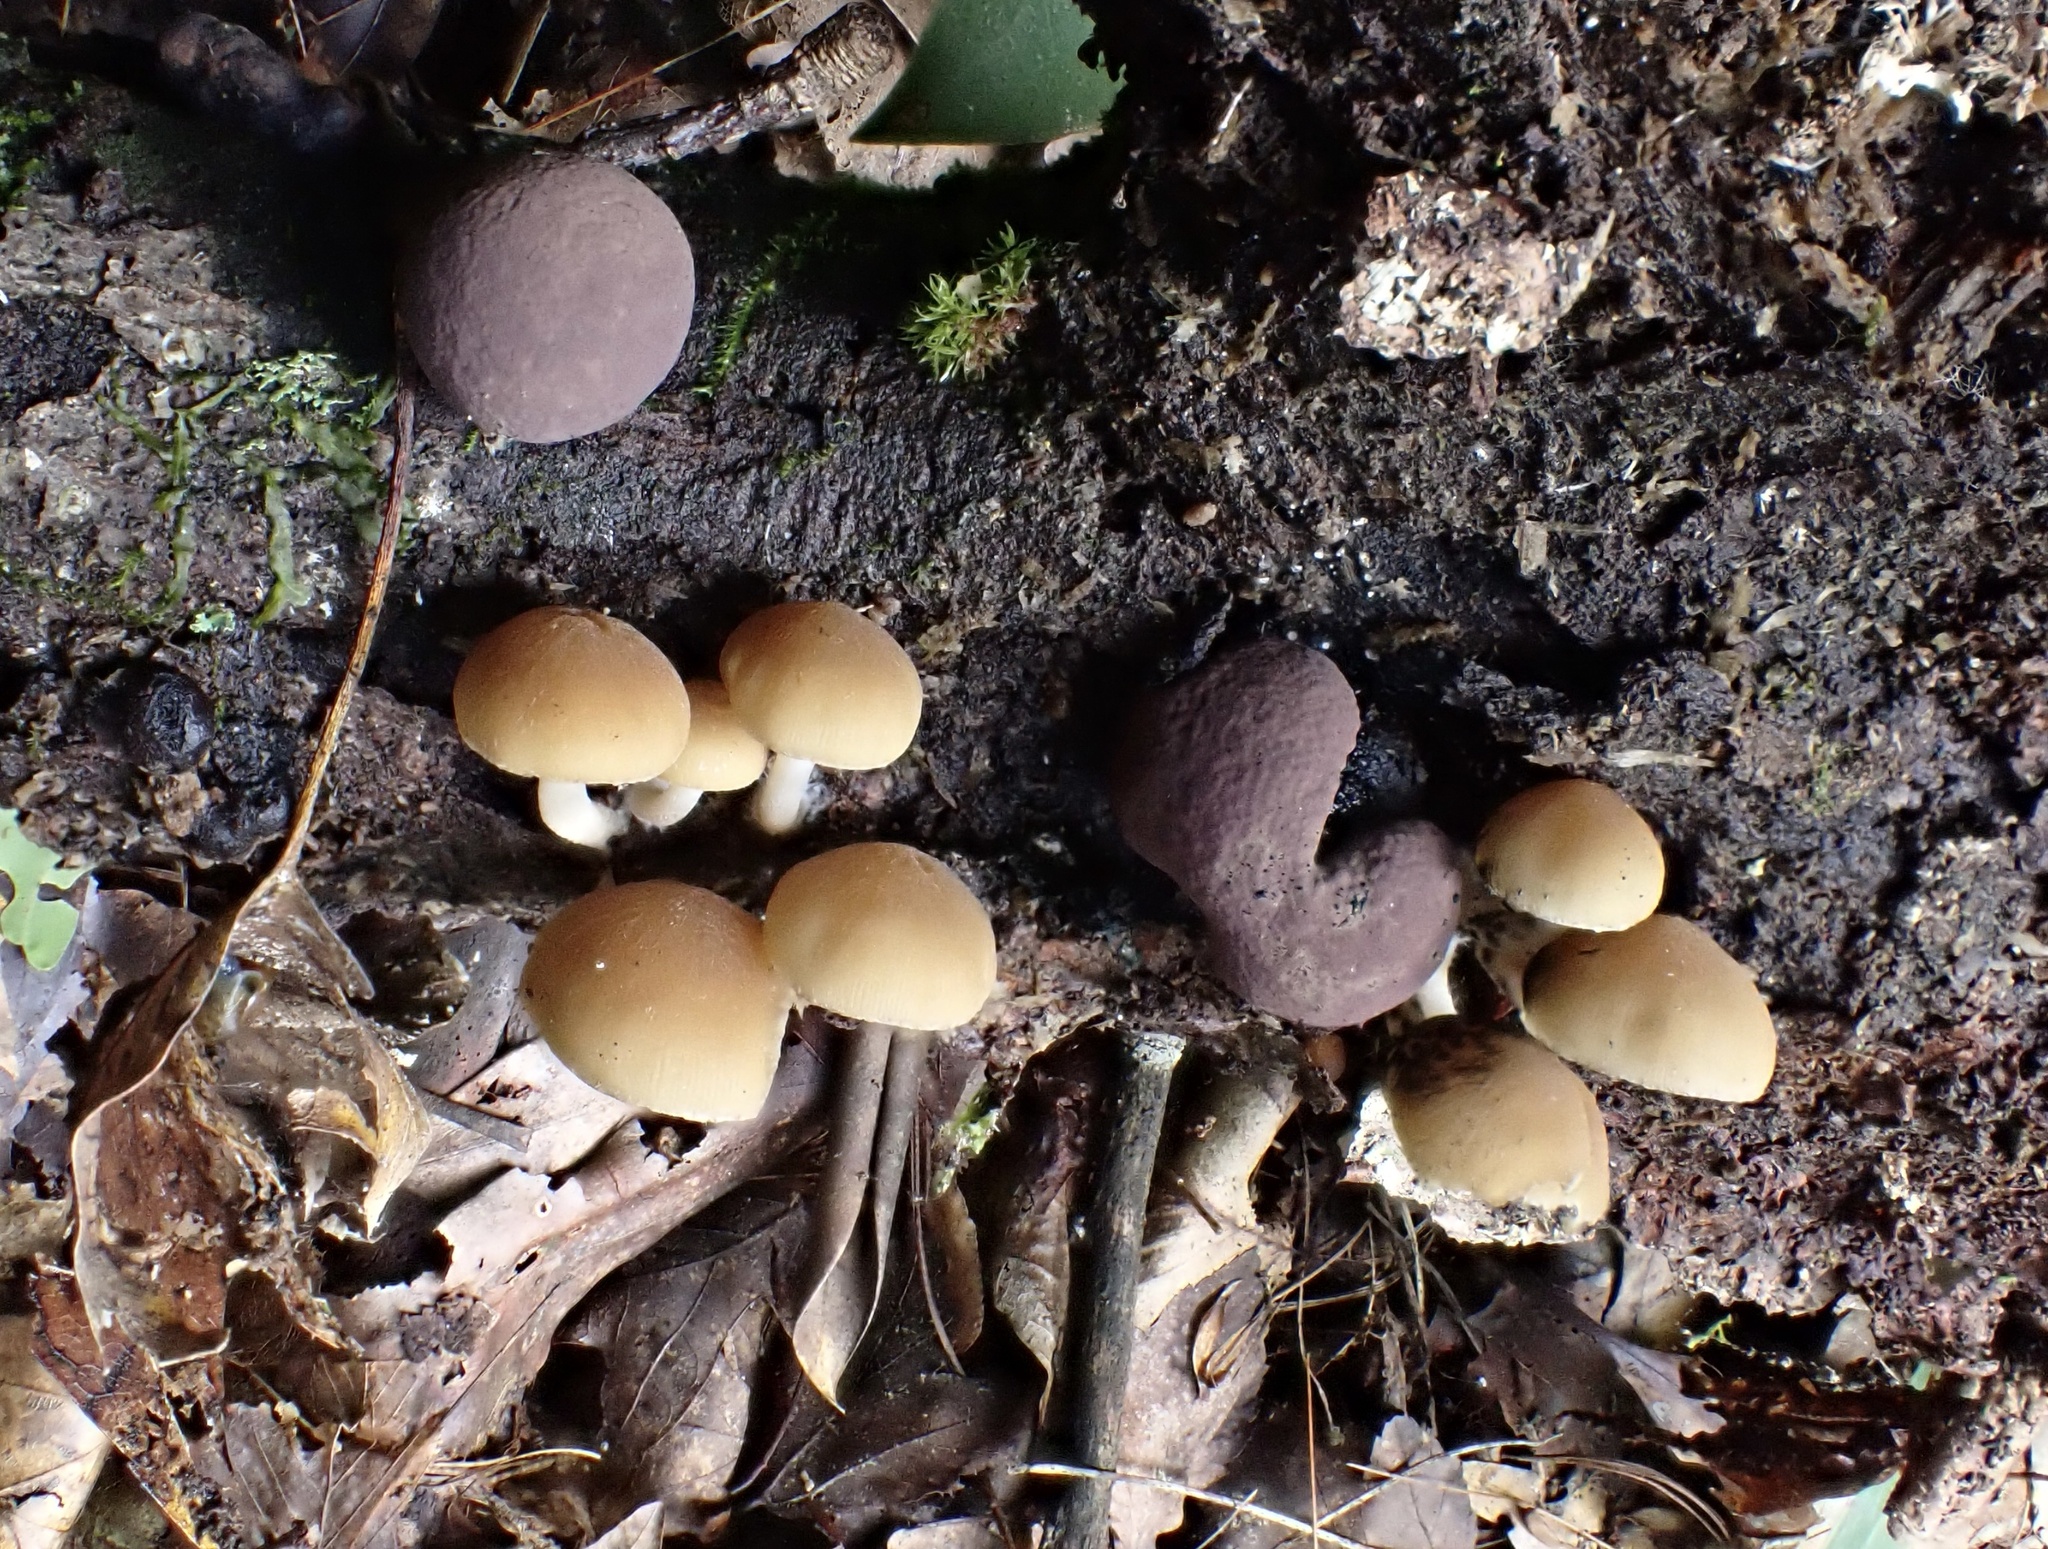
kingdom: Fungi
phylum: Ascomycota
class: Sordariomycetes
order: Xylariales
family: Hypoxylaceae
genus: Daldinia
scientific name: Daldinia childiae
